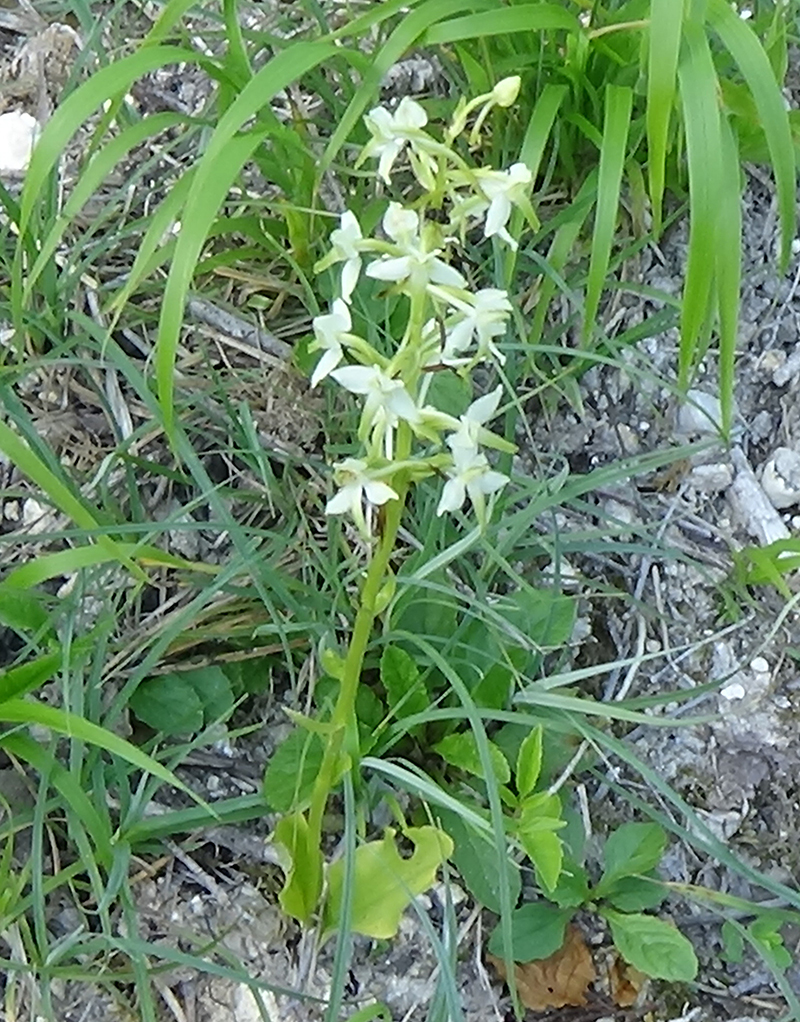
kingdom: Plantae
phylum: Tracheophyta
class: Liliopsida
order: Asparagales
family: Orchidaceae
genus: Platanthera
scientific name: Platanthera chlorantha
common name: Greater butterfly-orchid
